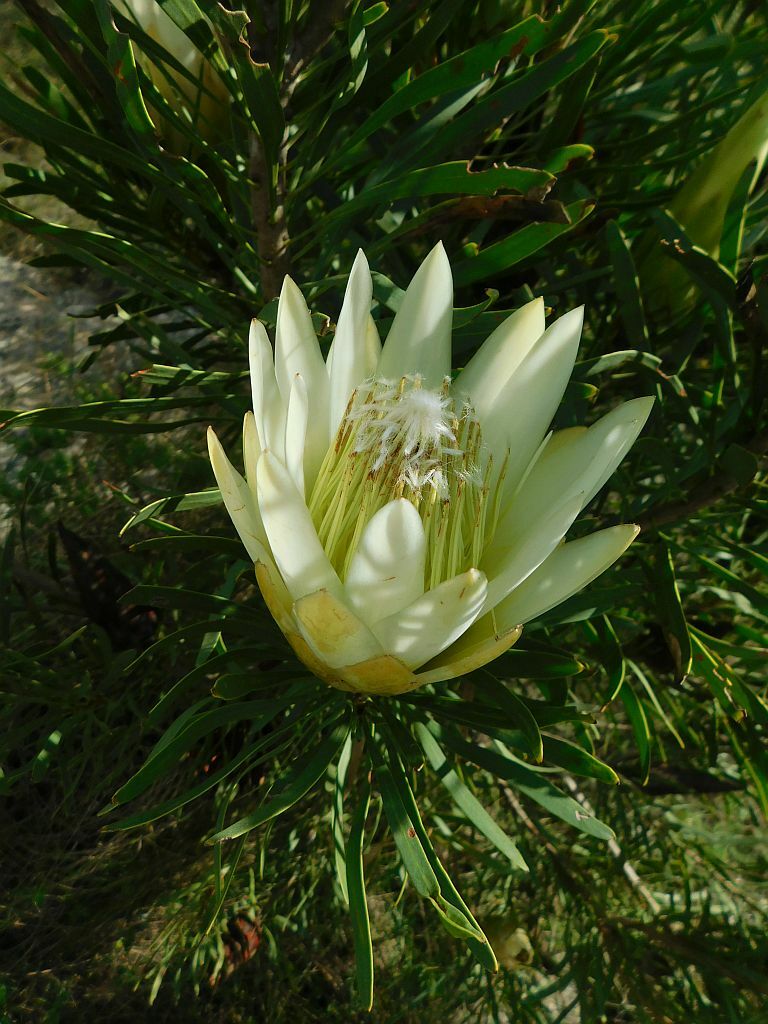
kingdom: Plantae
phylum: Tracheophyta
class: Magnoliopsida
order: Proteales
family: Proteaceae
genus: Protea
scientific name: Protea repens
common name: Sugarbush
